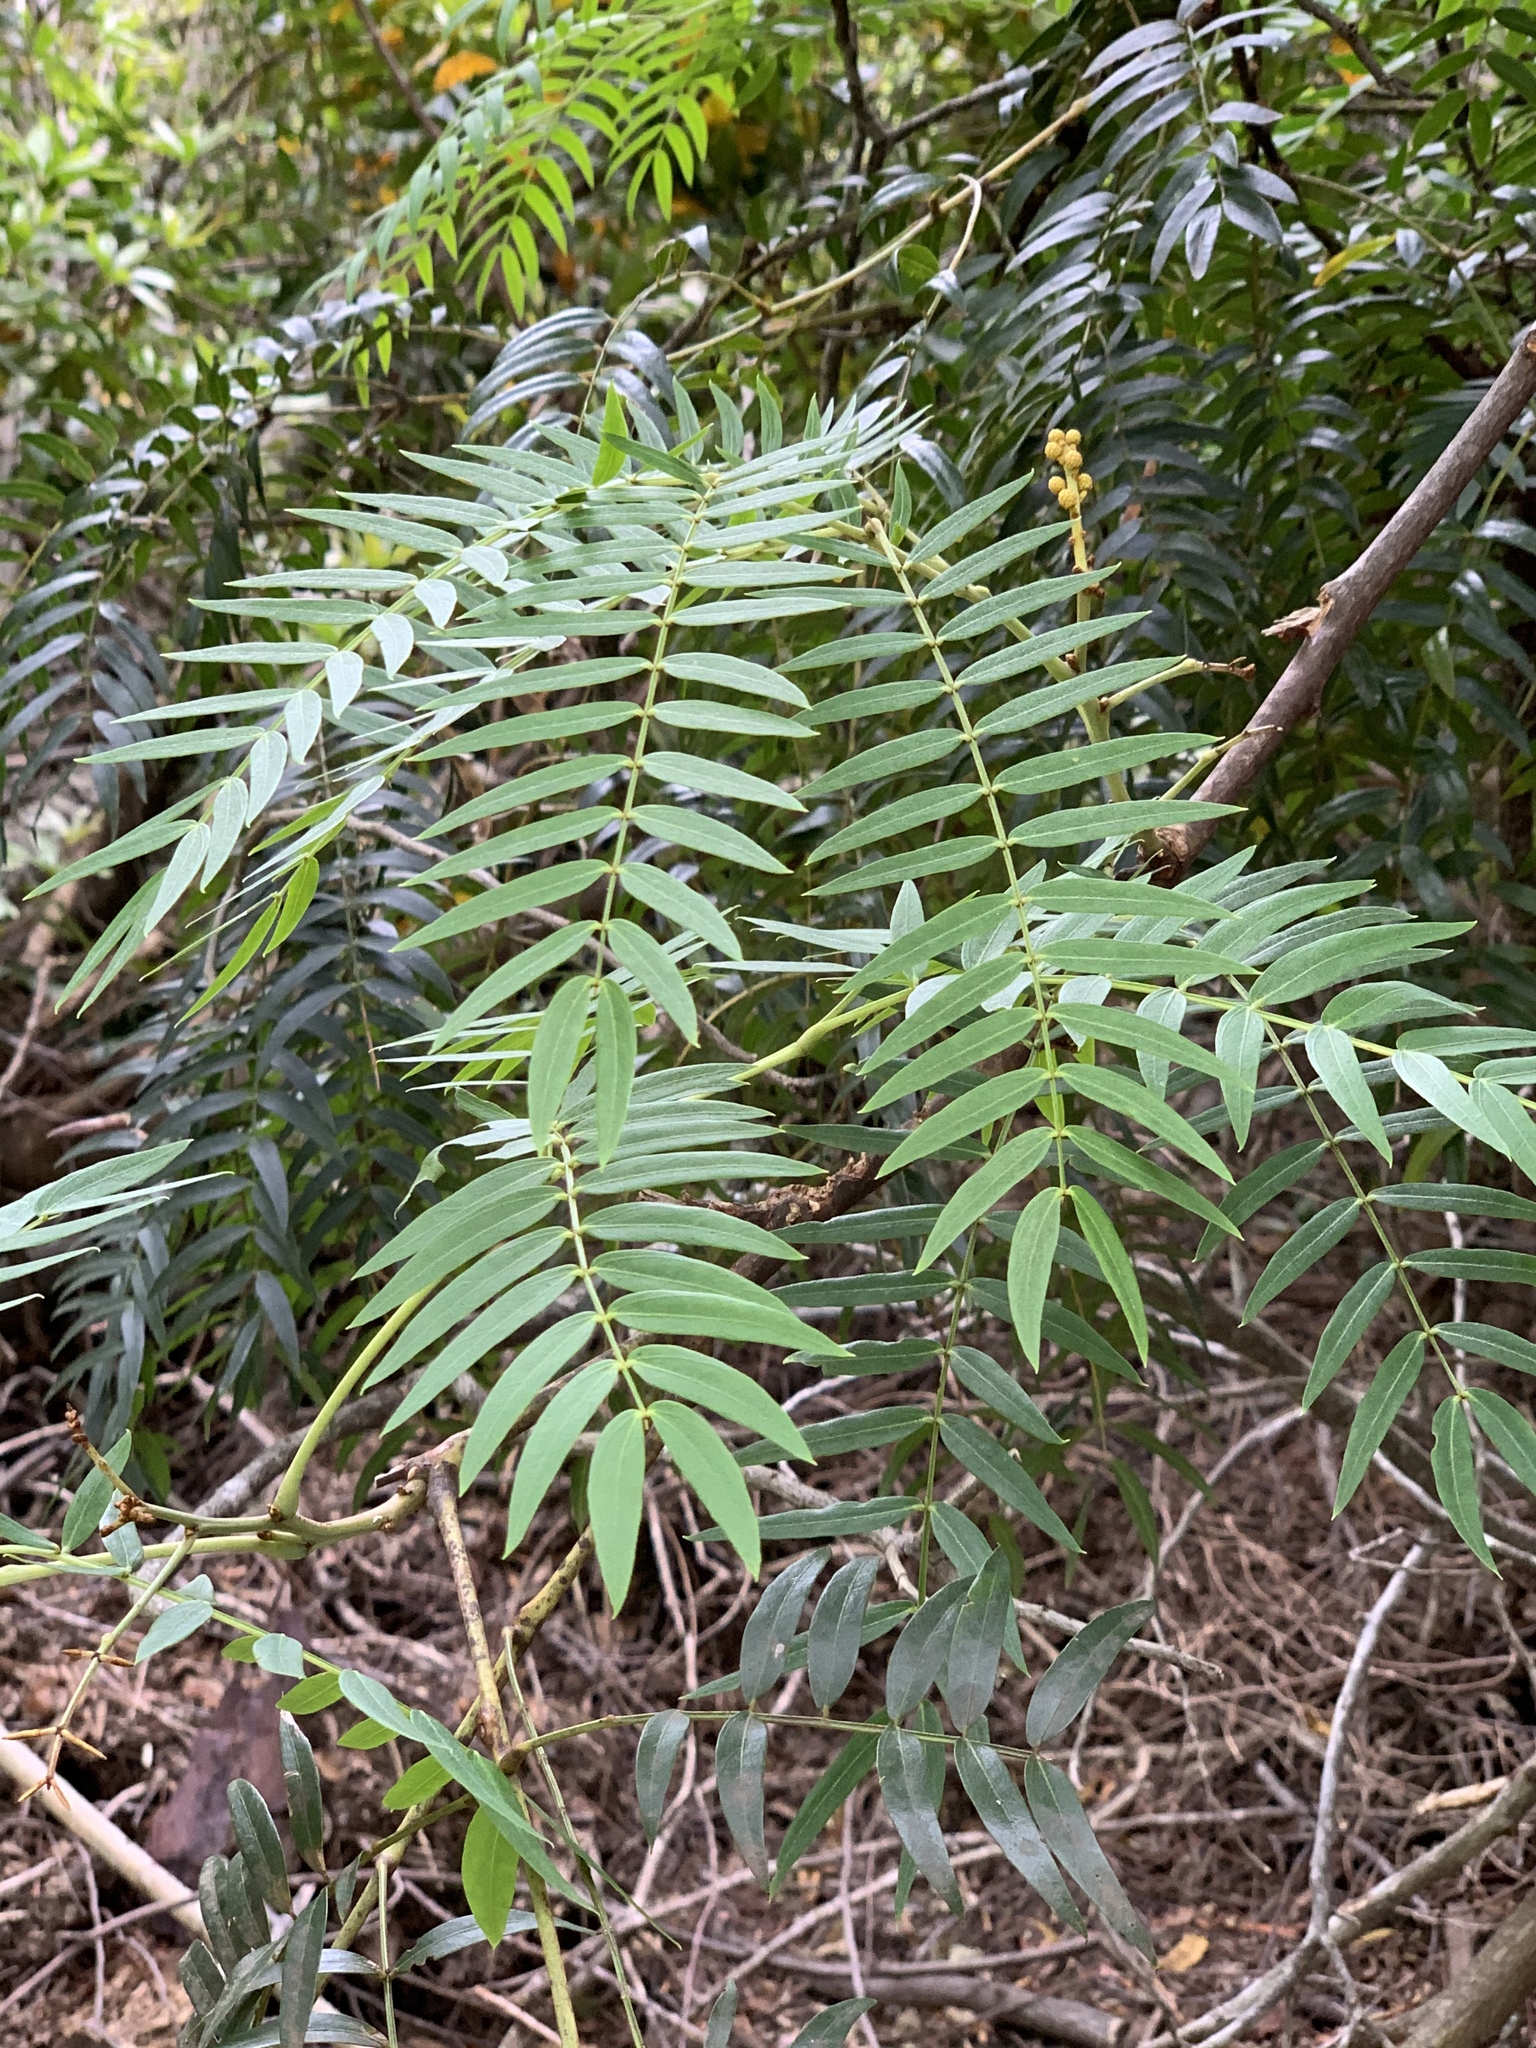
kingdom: Plantae
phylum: Tracheophyta
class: Magnoliopsida
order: Fabales
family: Fabaceae
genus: Acacia
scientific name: Acacia elata
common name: Cedar wattle
